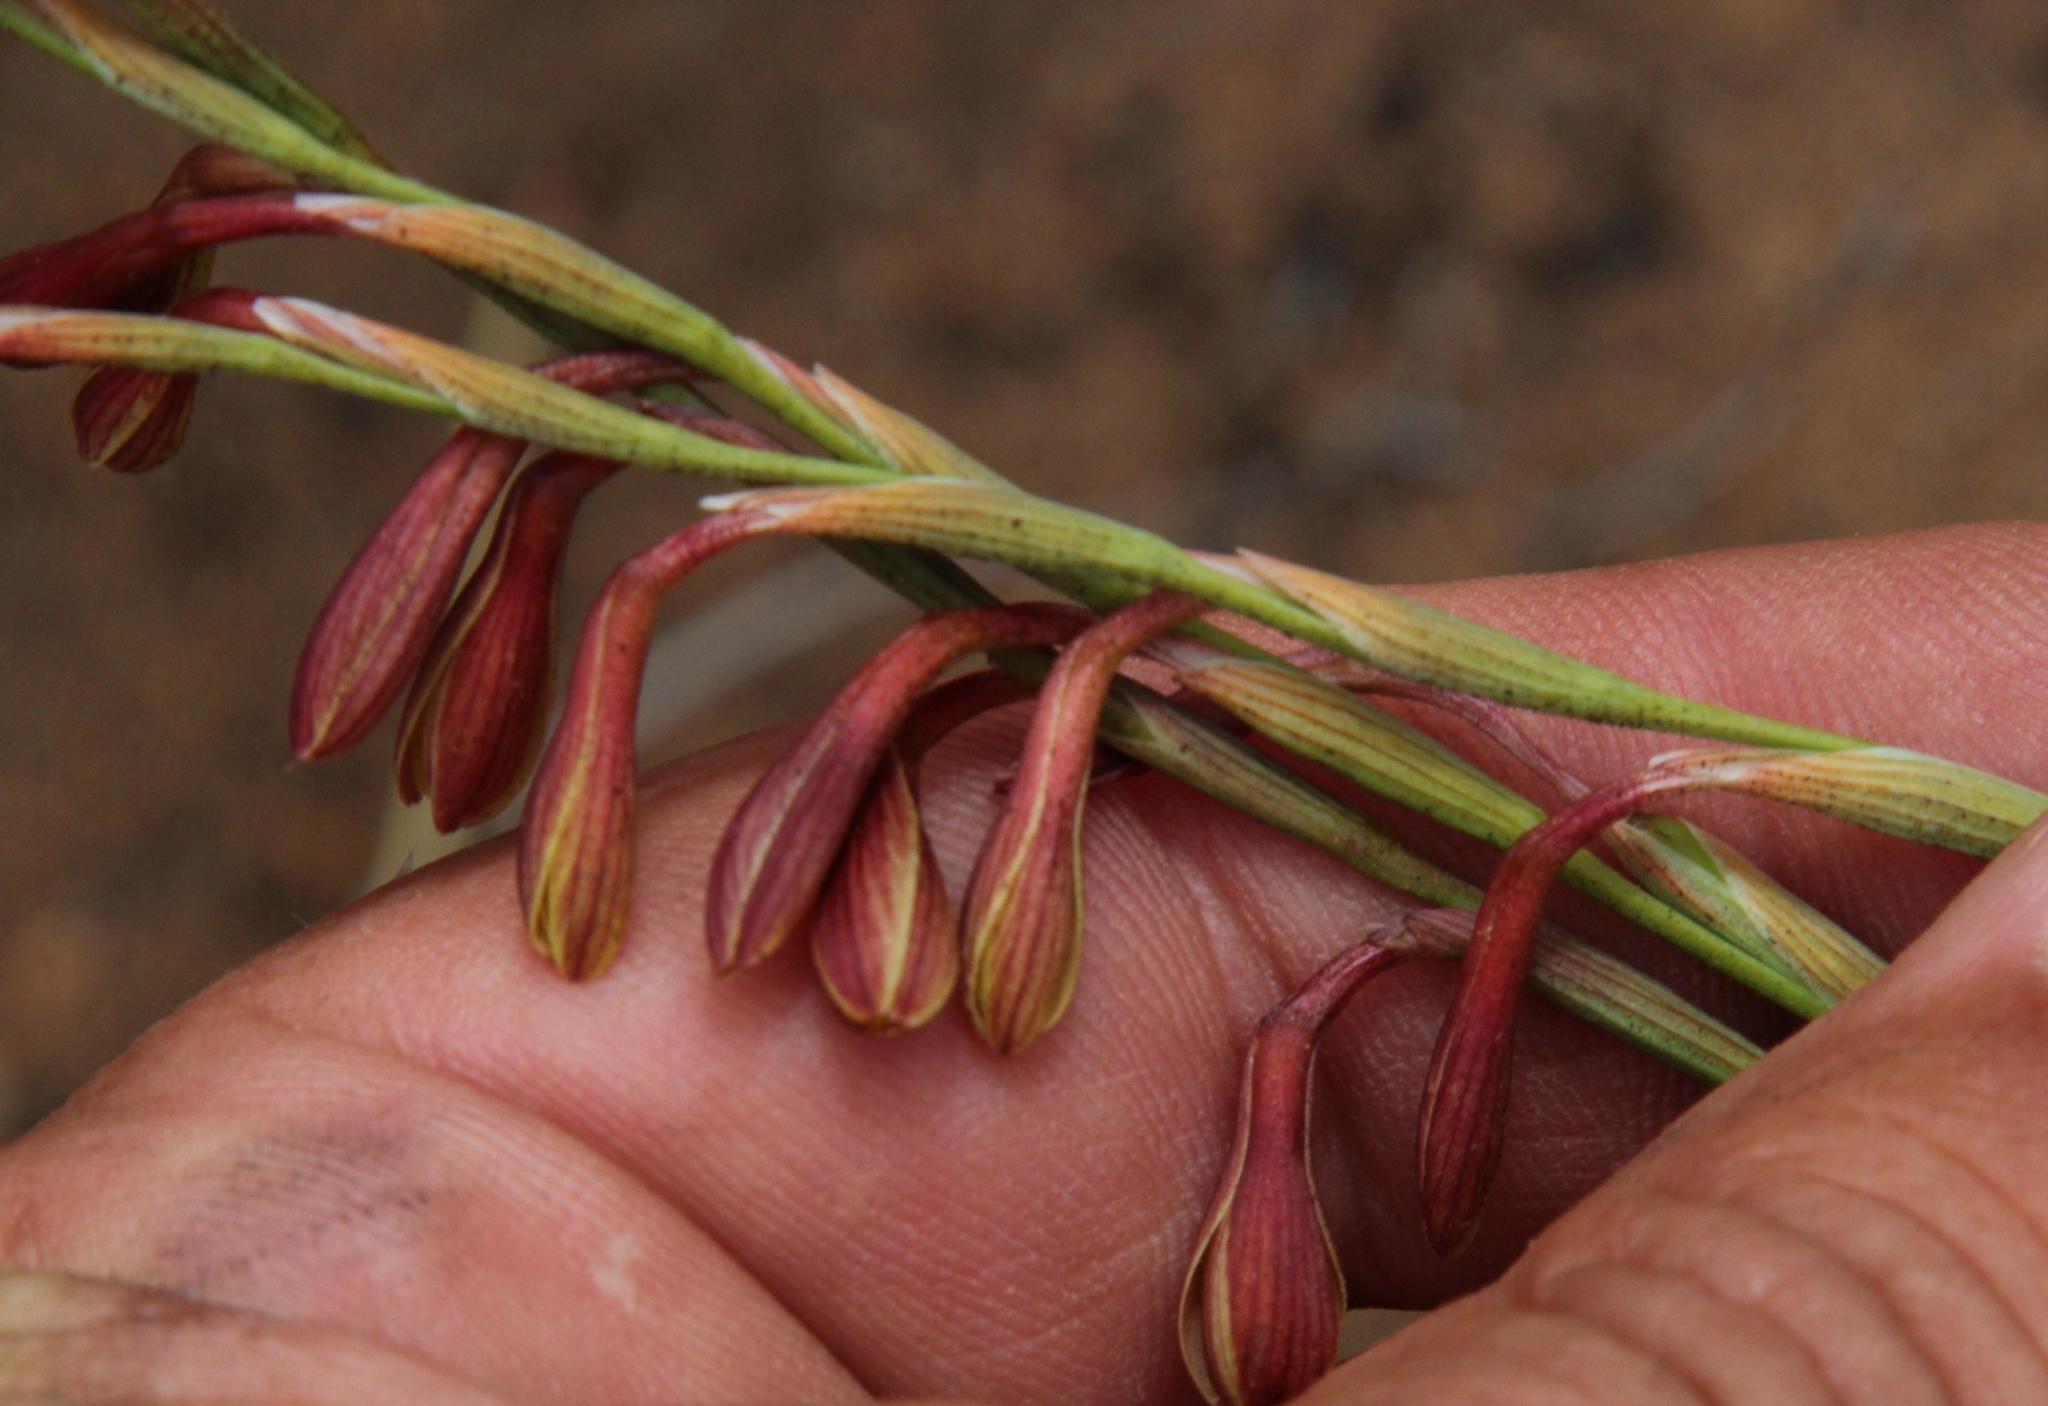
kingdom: Plantae
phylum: Tracheophyta
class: Liliopsida
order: Asparagales
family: Iridaceae
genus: Hesperantha
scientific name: Hesperantha radiata
